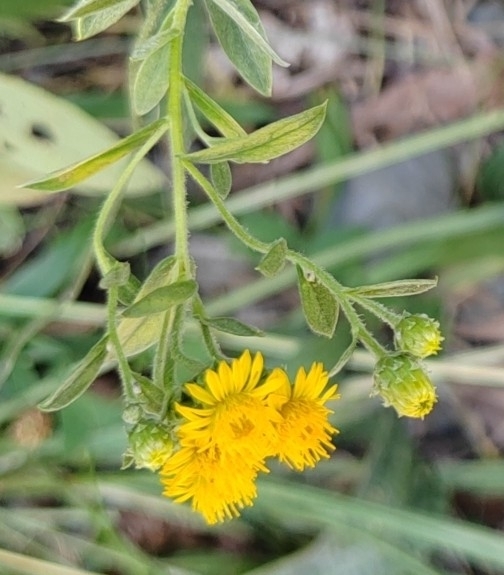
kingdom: Plantae
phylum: Tracheophyta
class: Magnoliopsida
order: Asterales
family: Asteraceae
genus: Pentanema
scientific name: Pentanema germanicum
